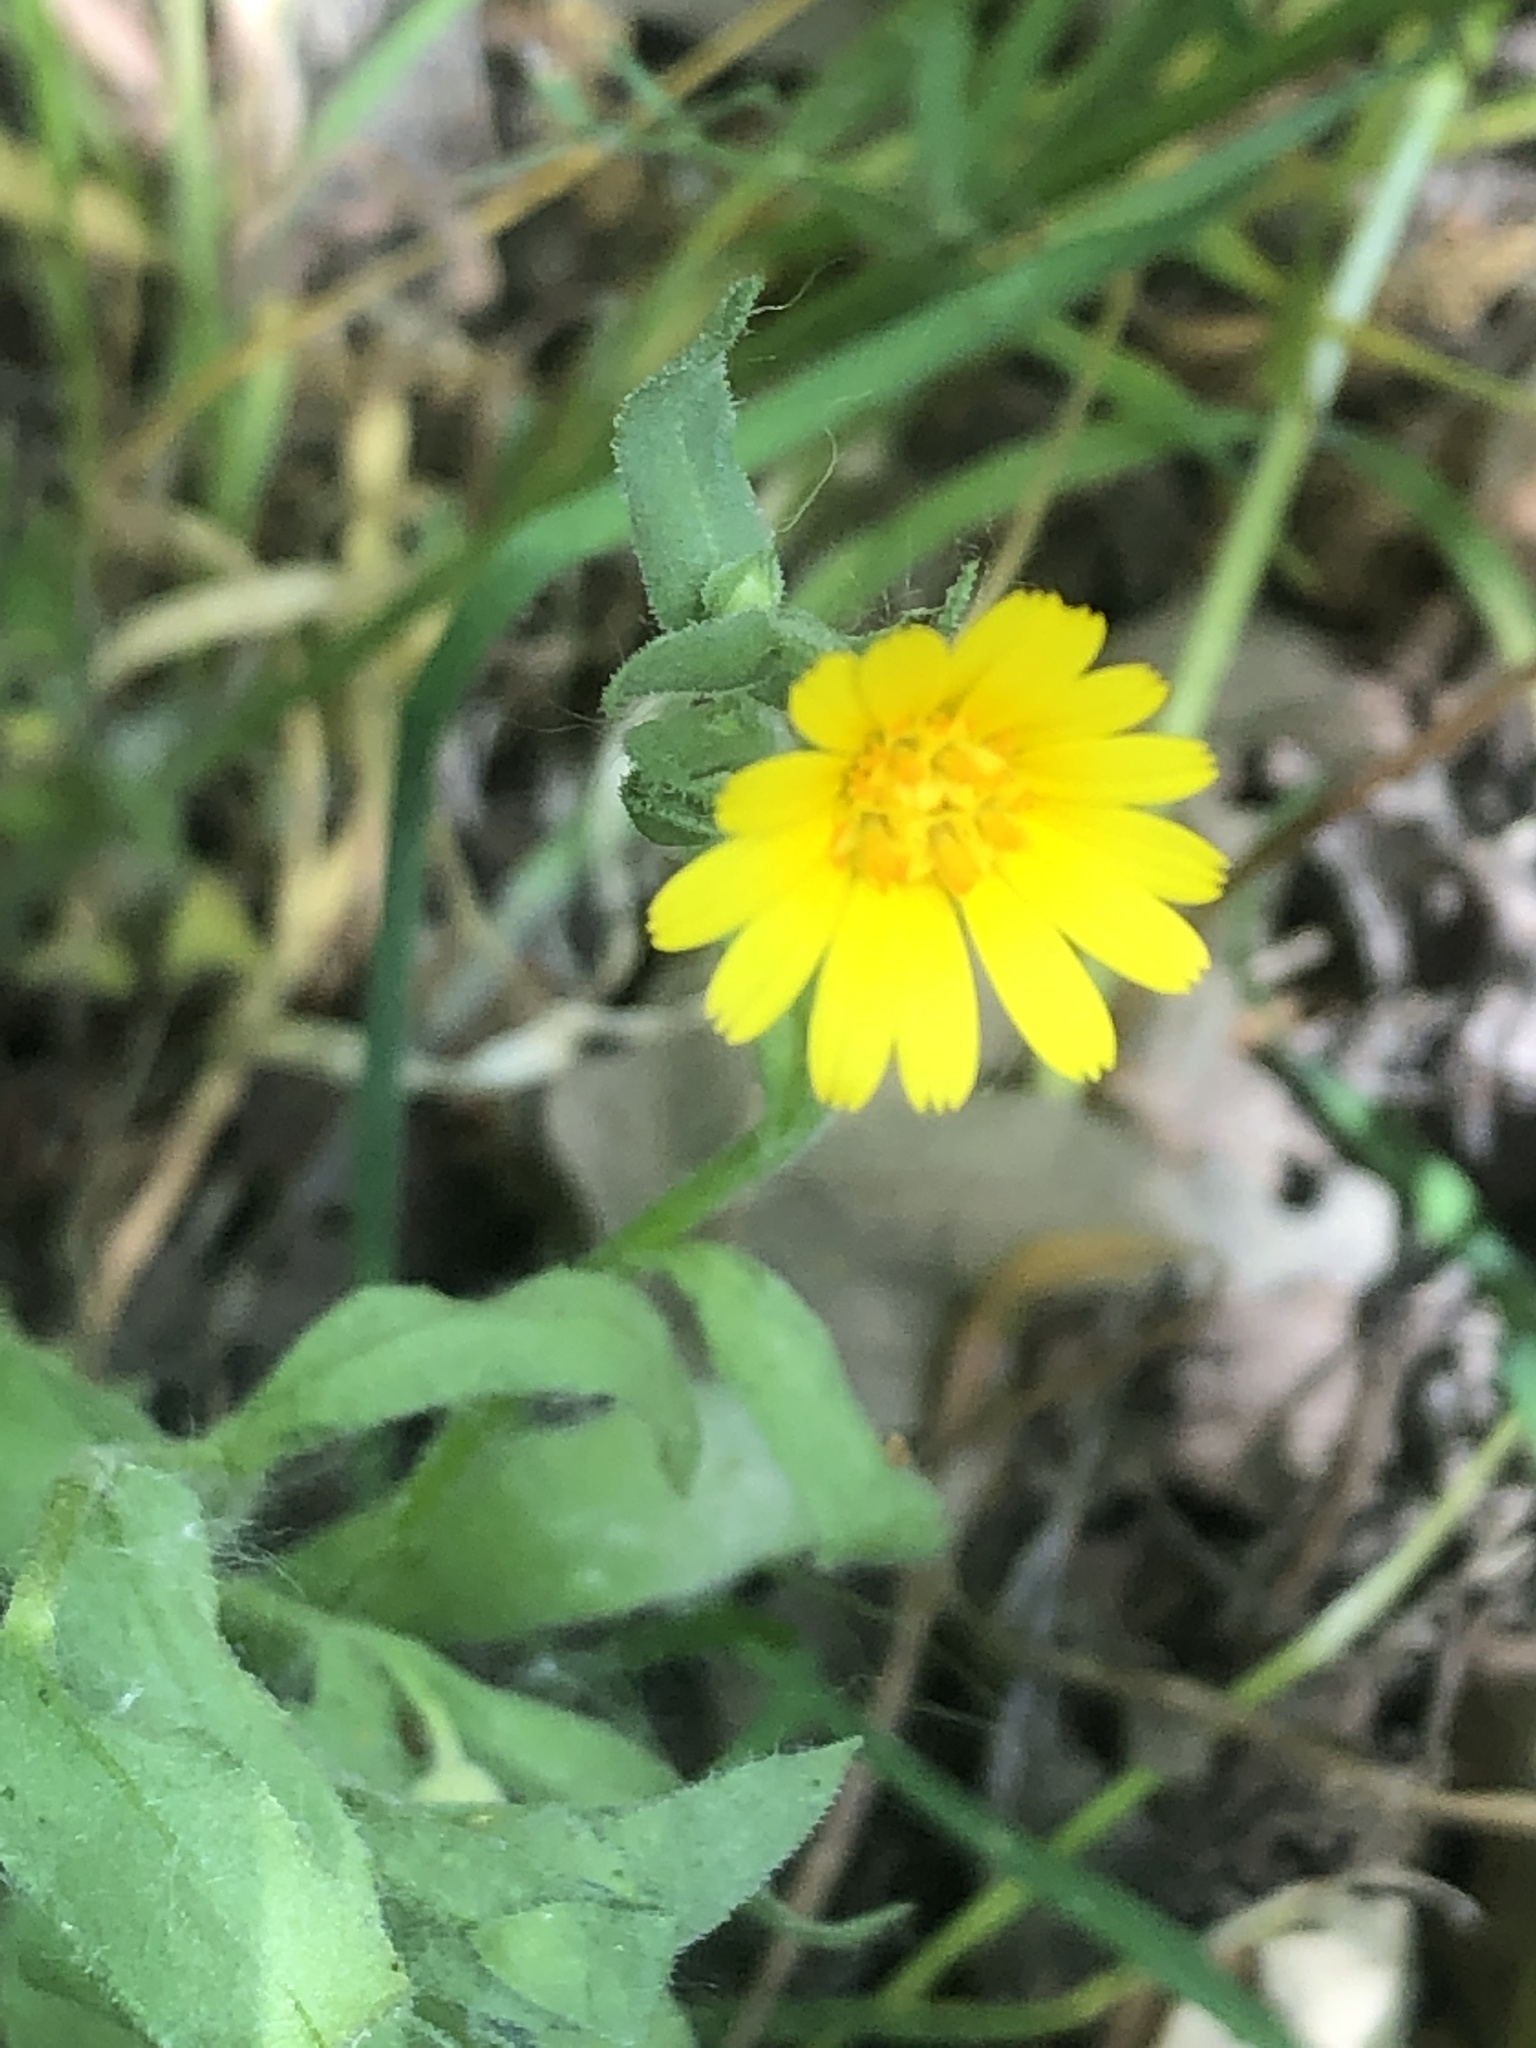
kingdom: Plantae
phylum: Tracheophyta
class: Magnoliopsida
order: Asterales
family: Asteraceae
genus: Calendula
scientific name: Calendula arvensis
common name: Field marigold
